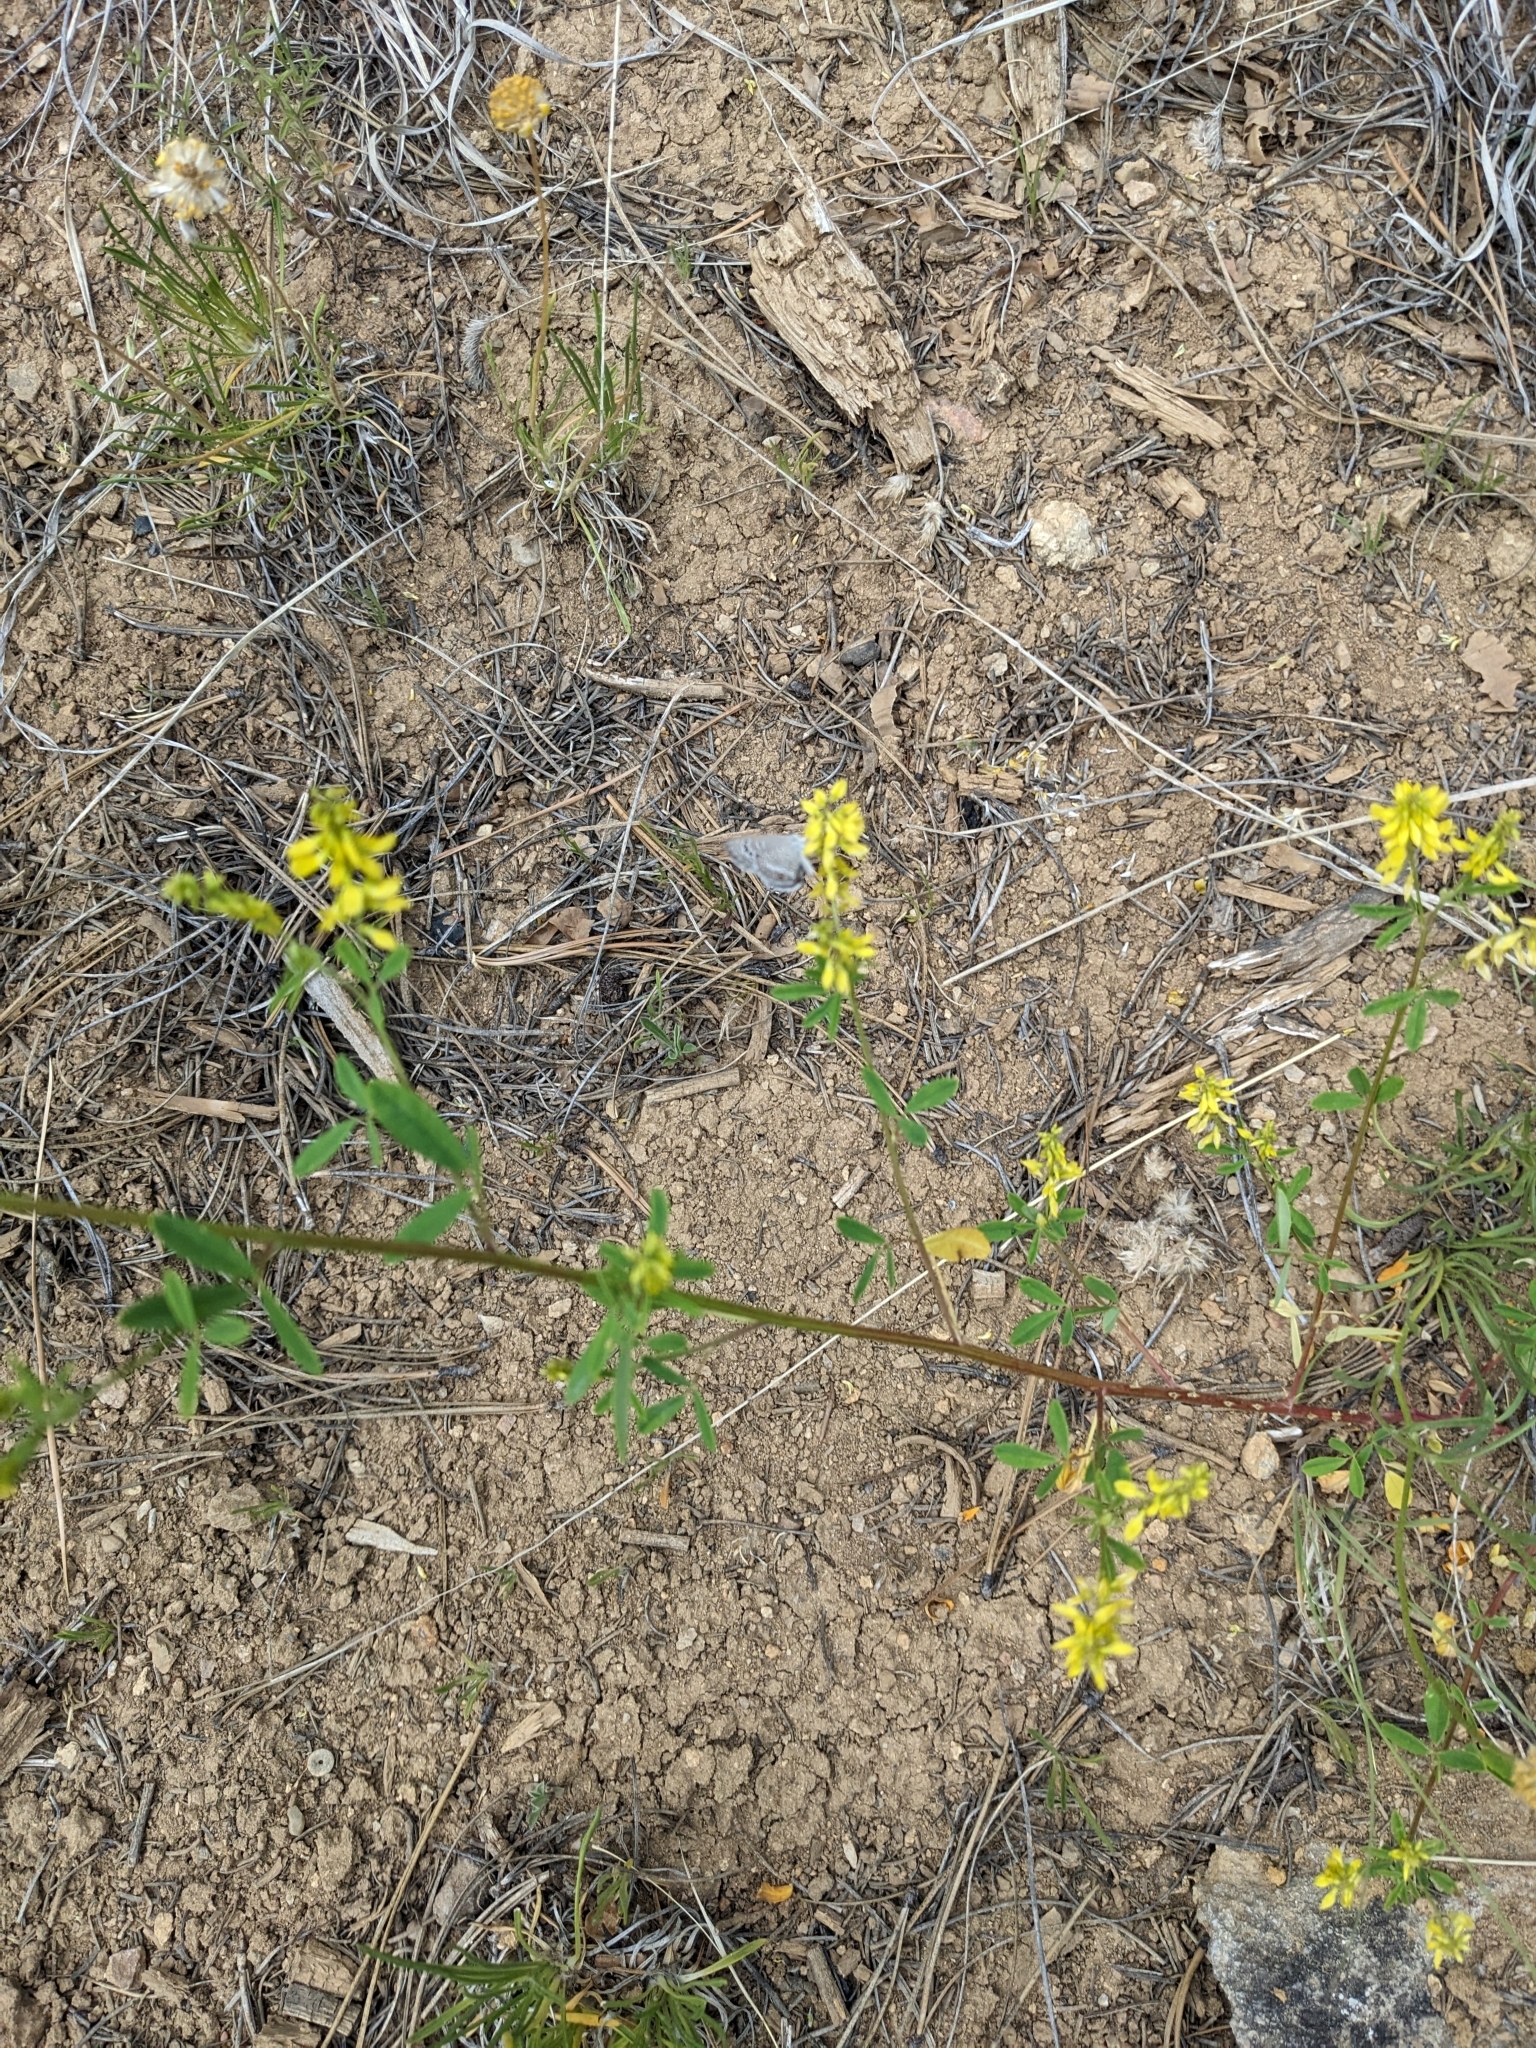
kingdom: Plantae
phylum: Tracheophyta
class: Magnoliopsida
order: Fabales
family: Fabaceae
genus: Melilotus
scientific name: Melilotus officinalis
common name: Sweetclover
